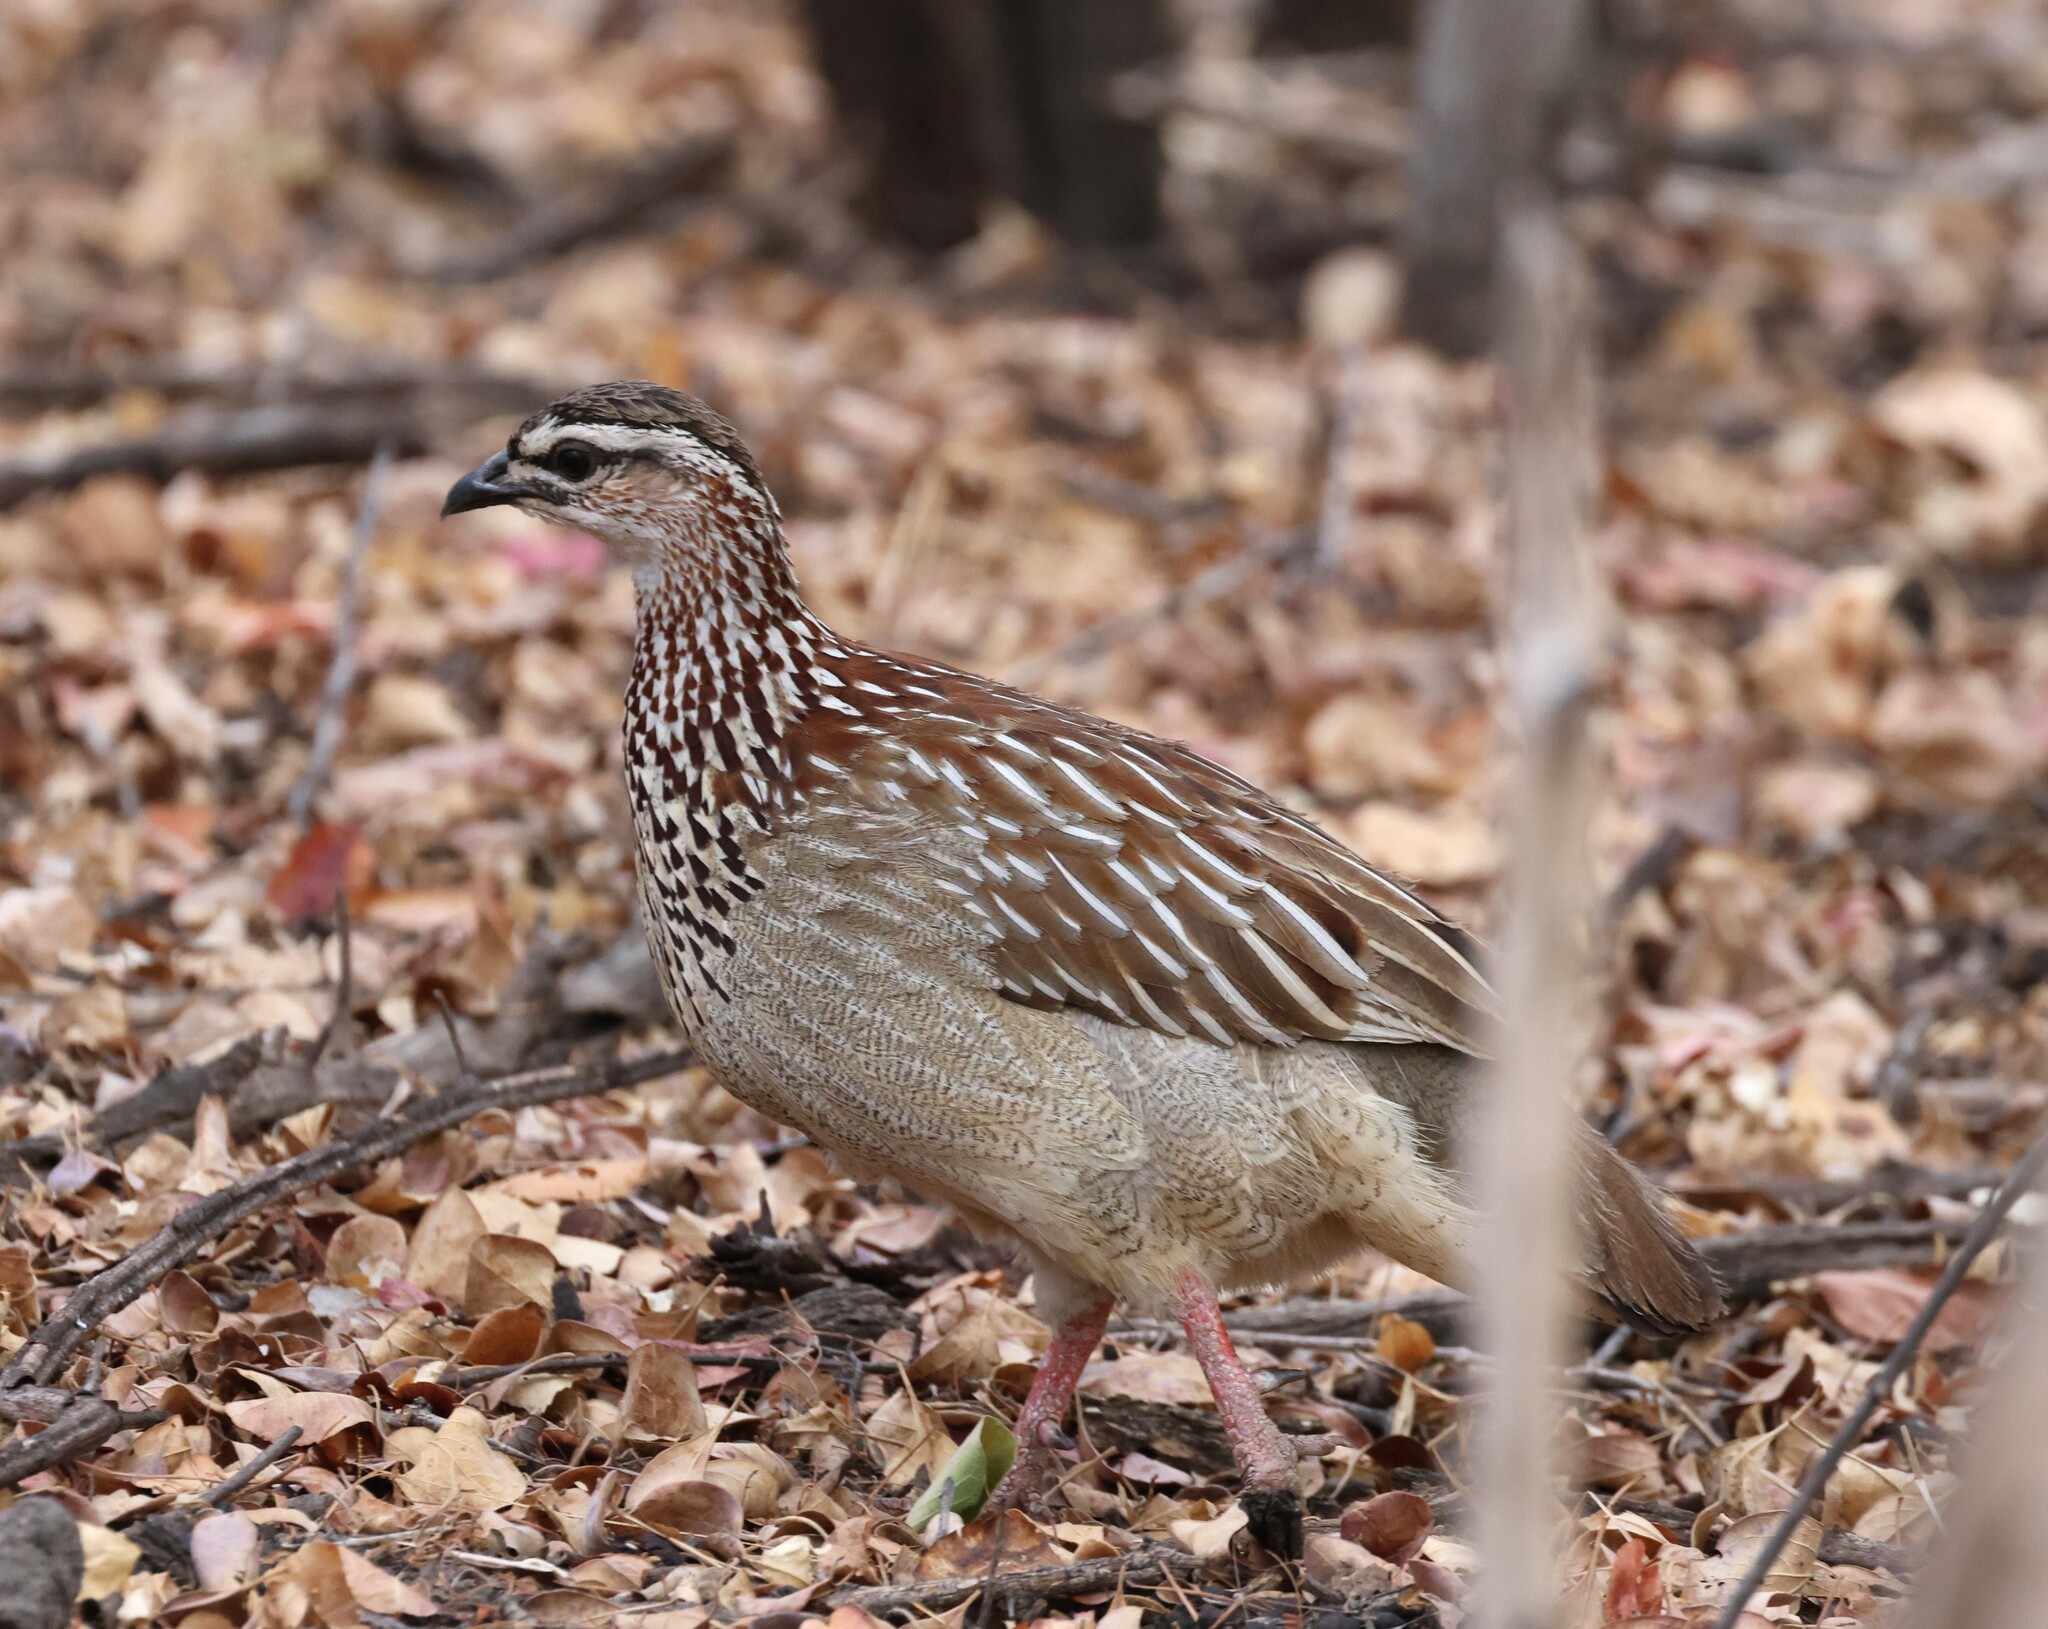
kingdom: Animalia
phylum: Chordata
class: Aves
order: Galliformes
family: Phasianidae
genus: Ortygornis
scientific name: Ortygornis sephaena
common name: Crested francolin
